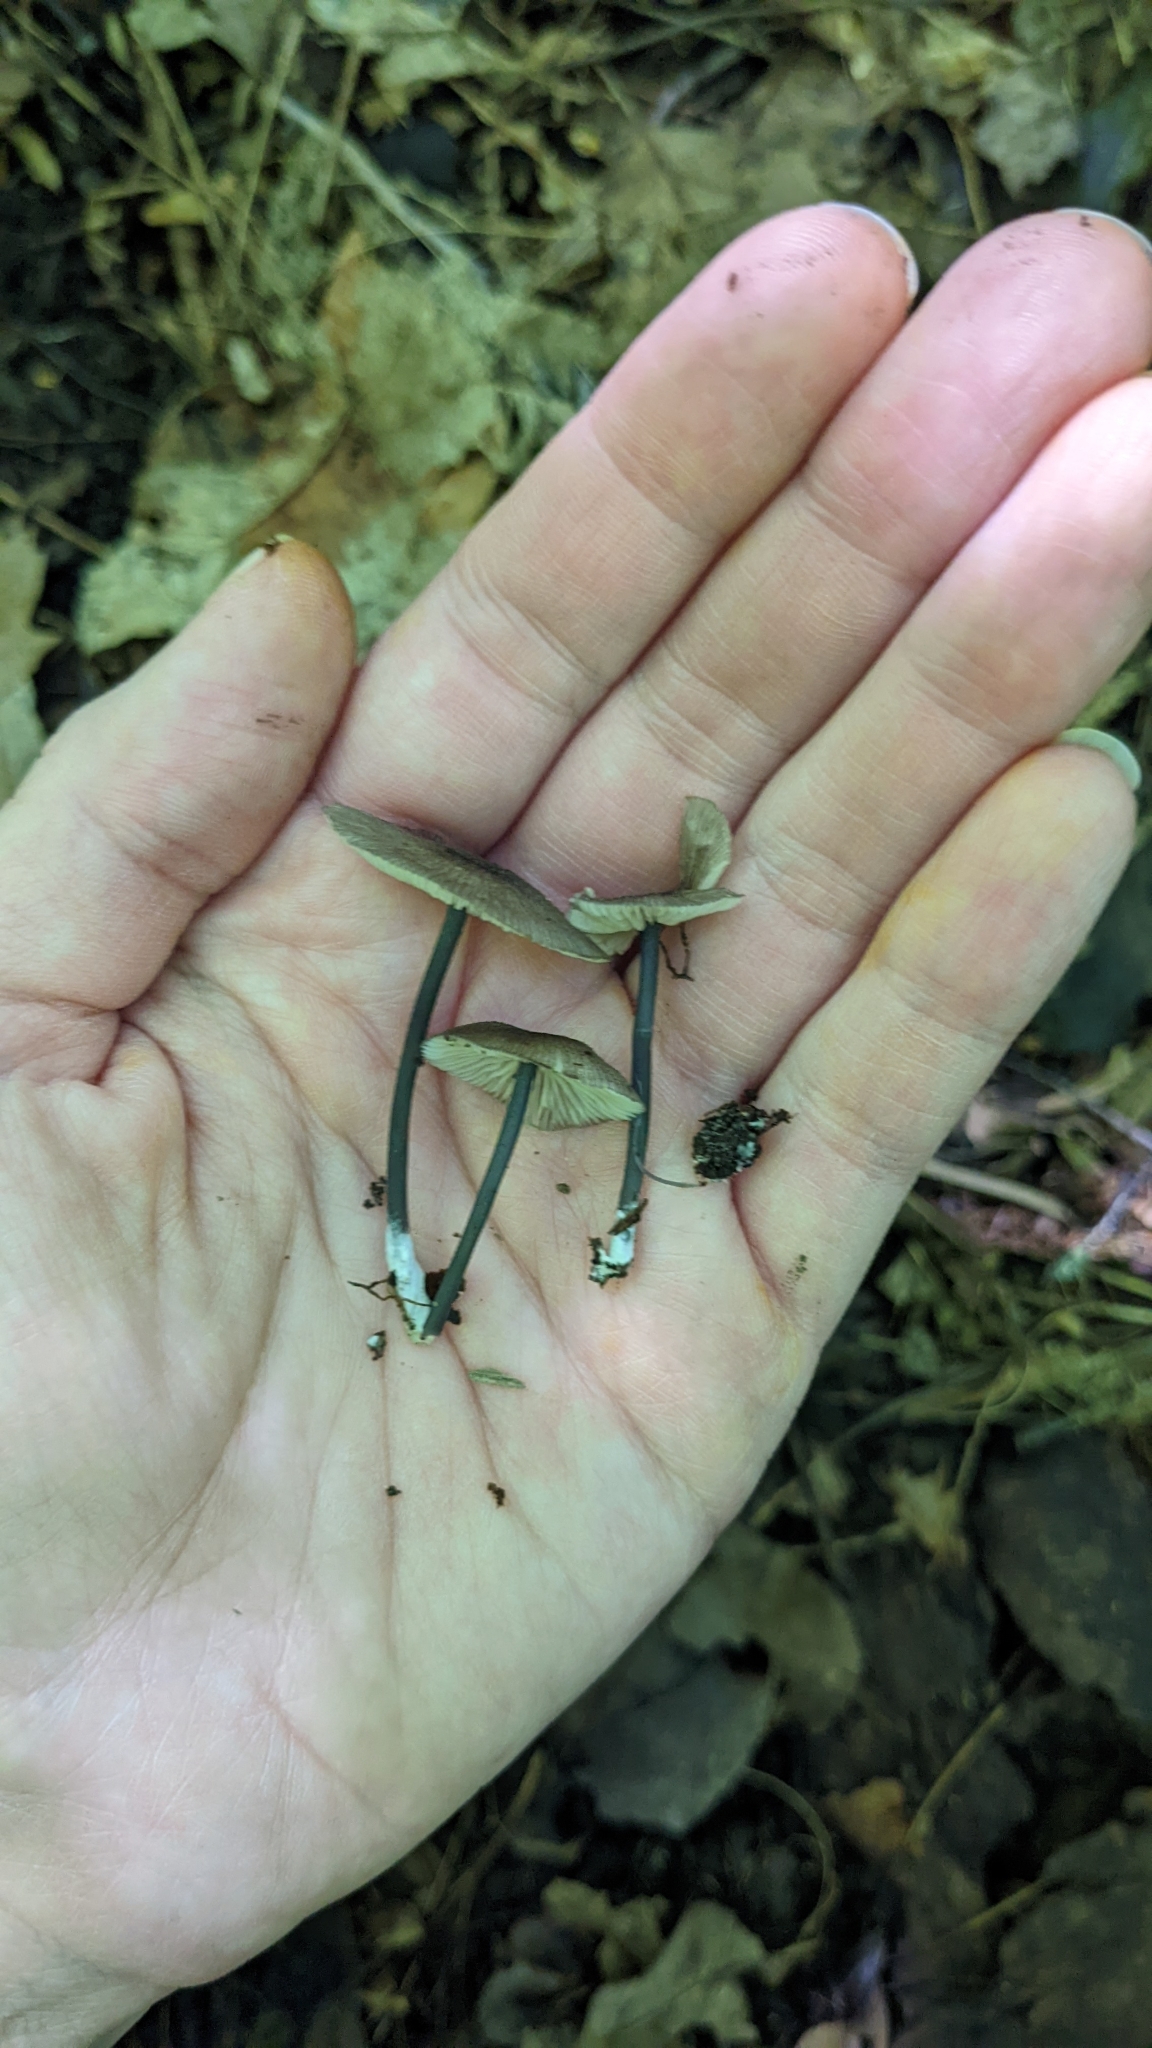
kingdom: Fungi
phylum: Basidiomycota
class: Agaricomycetes
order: Agaricales
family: Entolomataceae
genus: Entocybe
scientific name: Entocybe nitida
